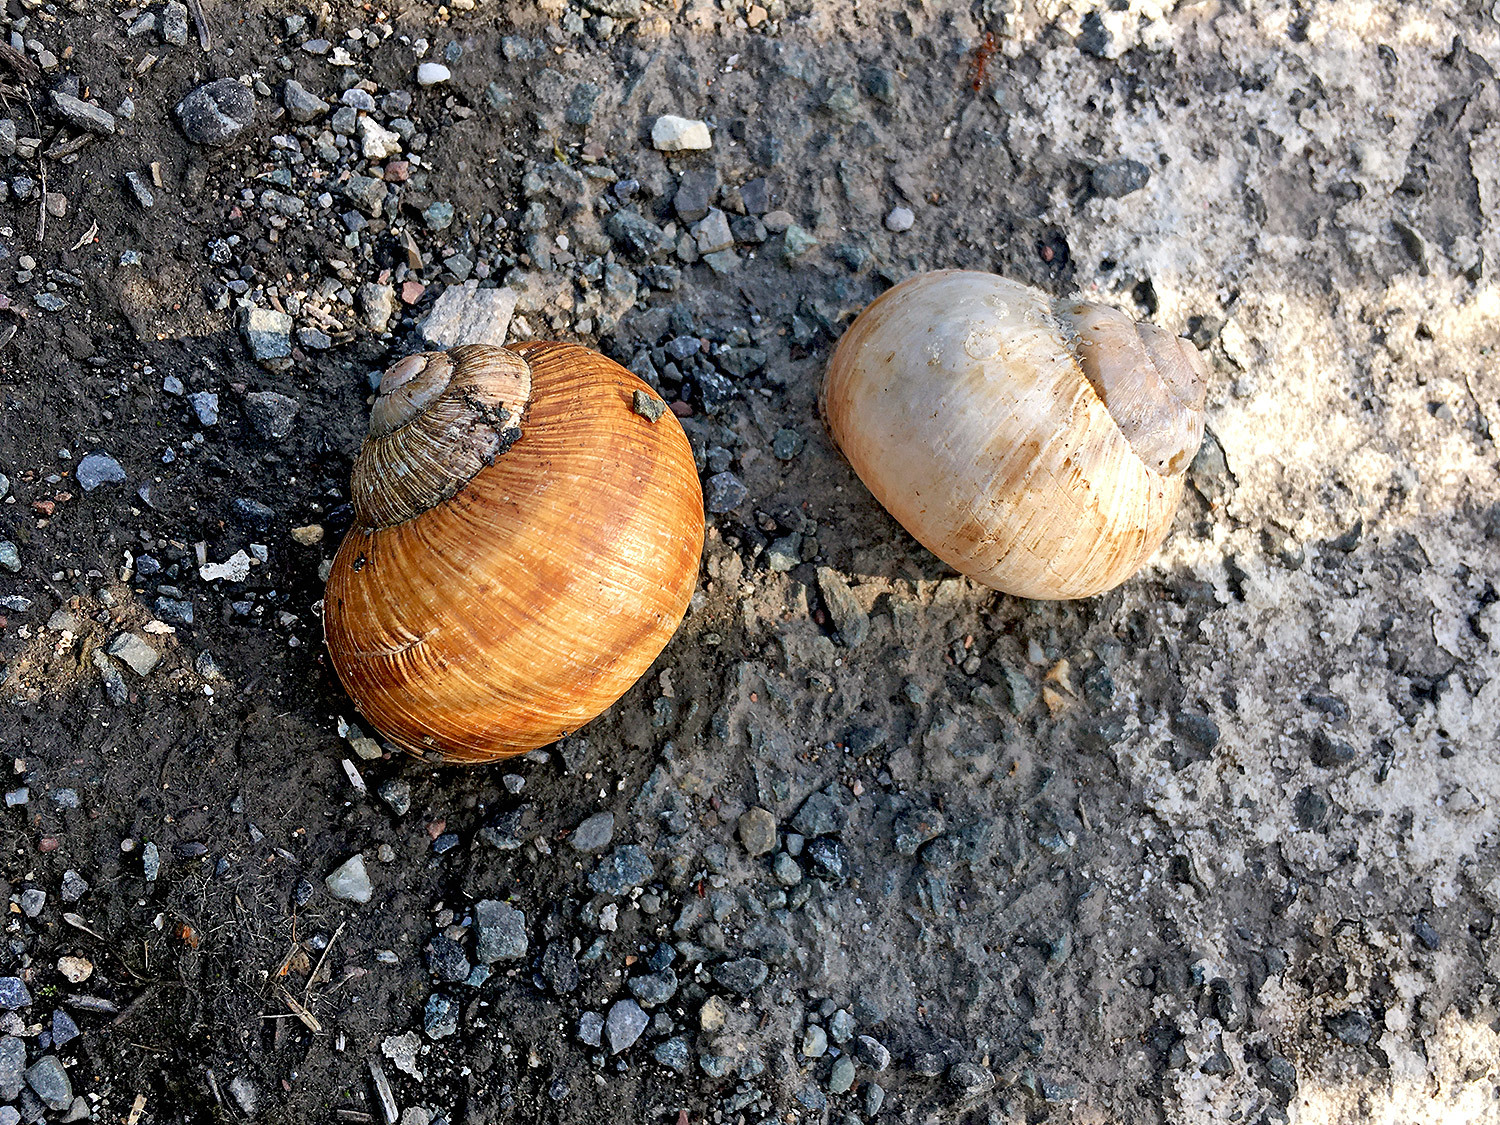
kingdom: Animalia
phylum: Mollusca
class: Gastropoda
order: Stylommatophora
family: Helicidae
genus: Helix
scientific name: Helix pomatia
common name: Roman snail
